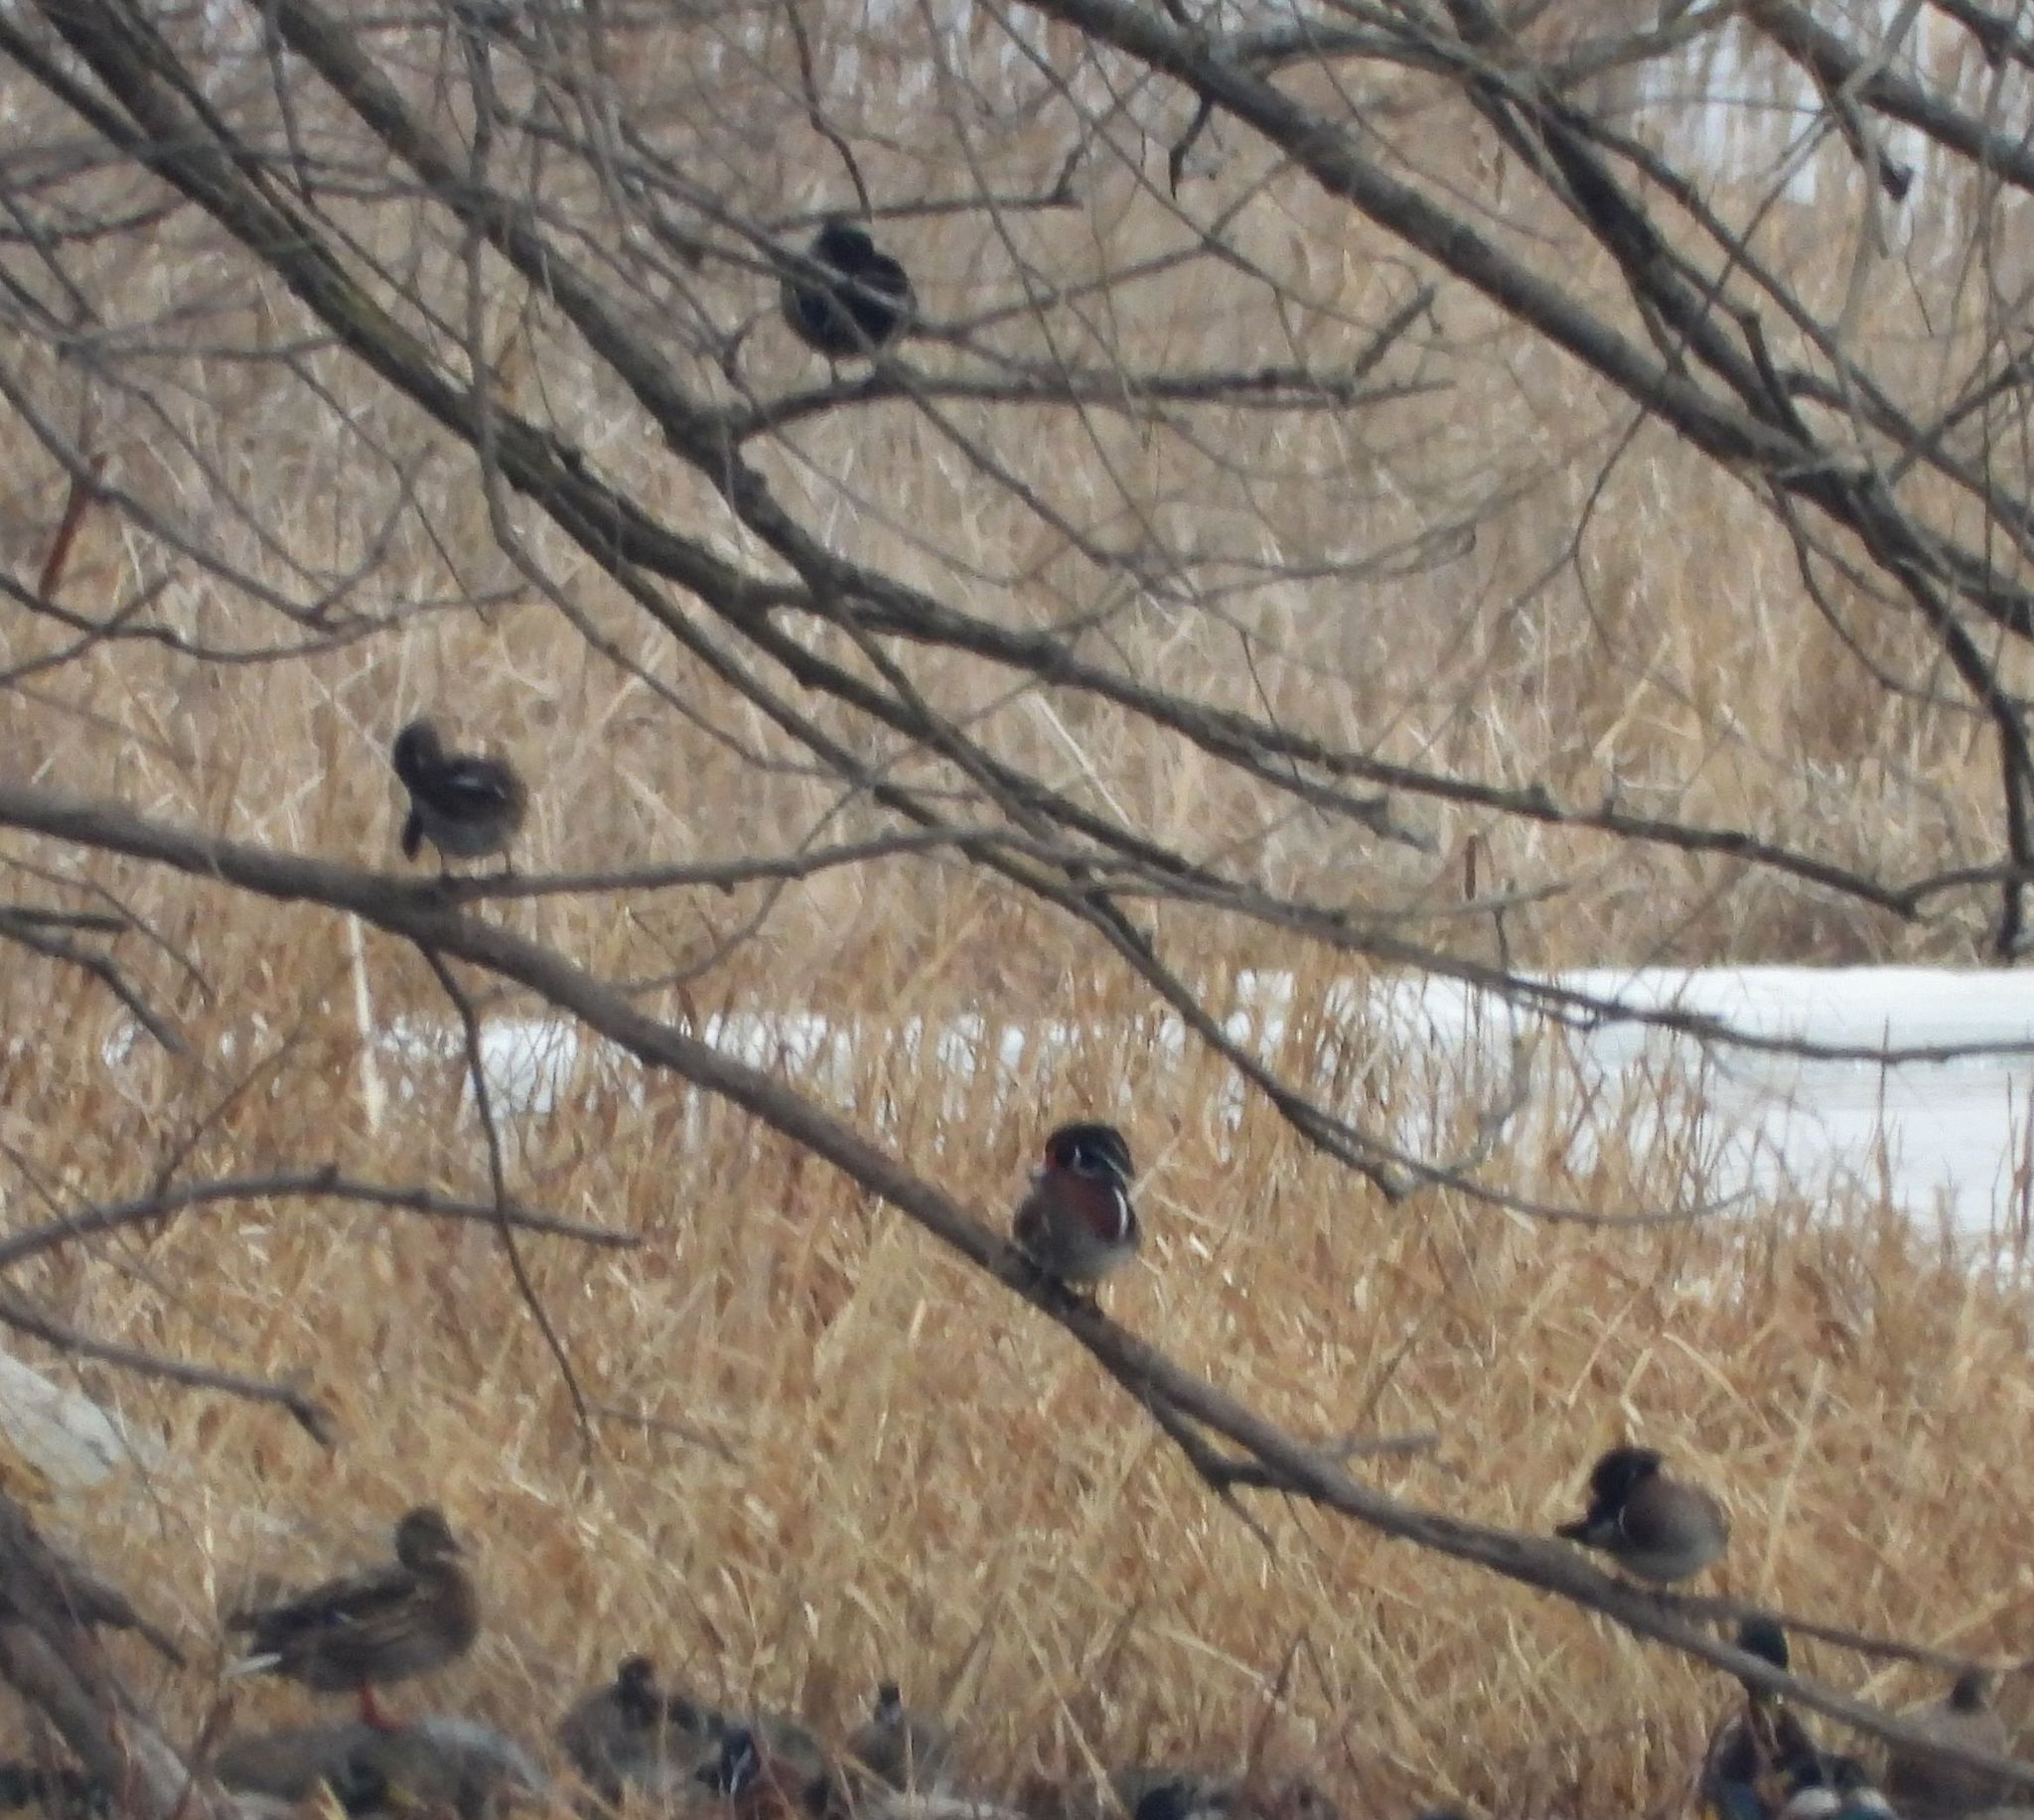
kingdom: Animalia
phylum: Chordata
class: Aves
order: Anseriformes
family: Anatidae
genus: Aix
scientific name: Aix sponsa
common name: Wood duck
